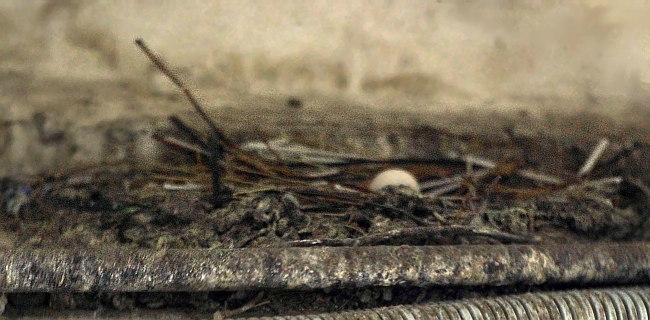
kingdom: Animalia
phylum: Chordata
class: Aves
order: Columbiformes
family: Columbidae
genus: Columba
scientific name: Columba livia
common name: Rock pigeon
